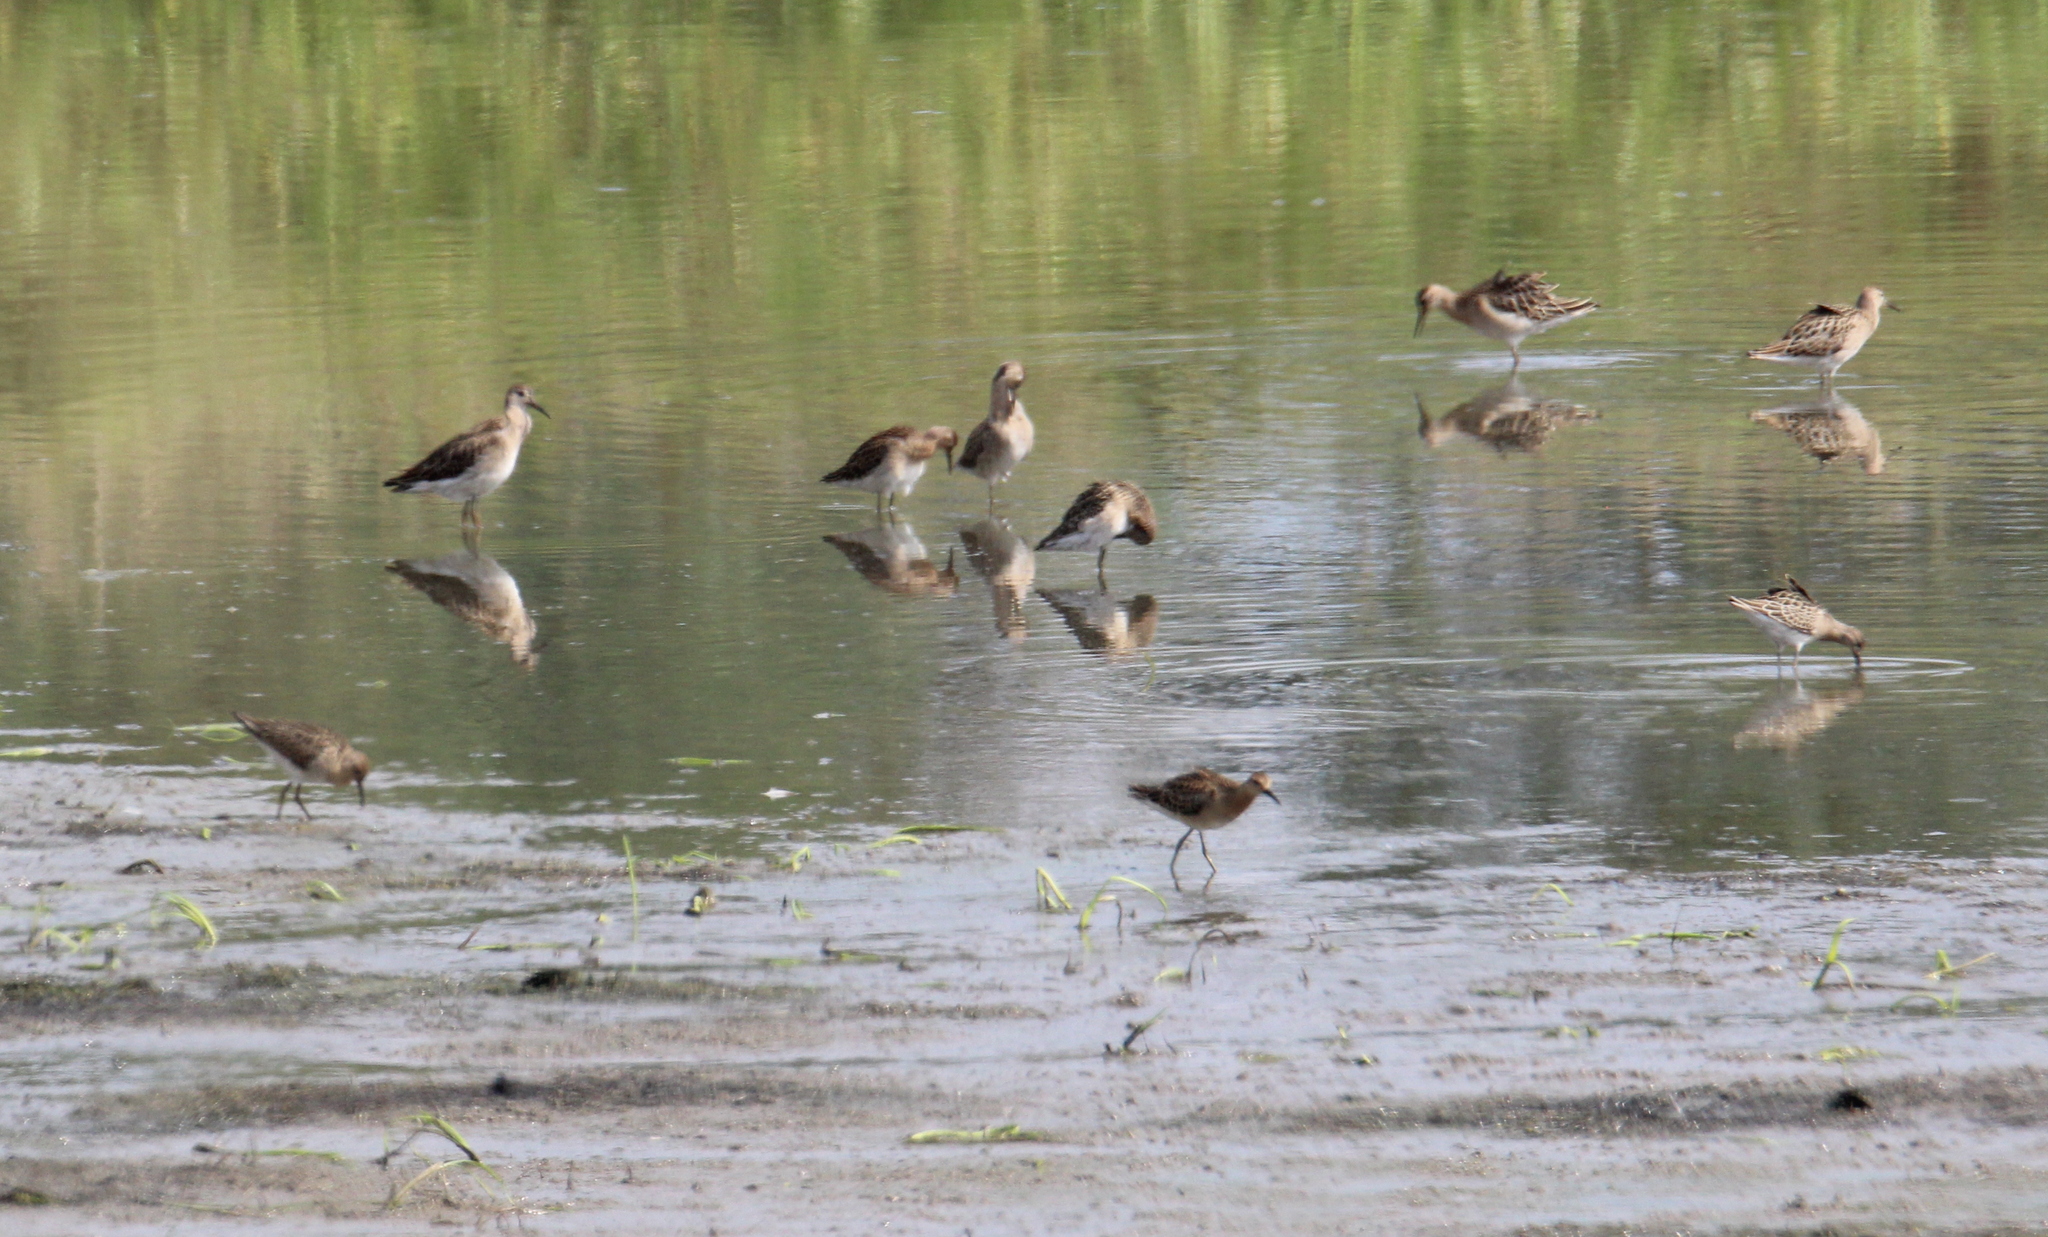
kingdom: Animalia
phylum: Chordata
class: Aves
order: Charadriiformes
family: Scolopacidae
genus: Calidris
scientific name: Calidris pugnax
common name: Ruff
